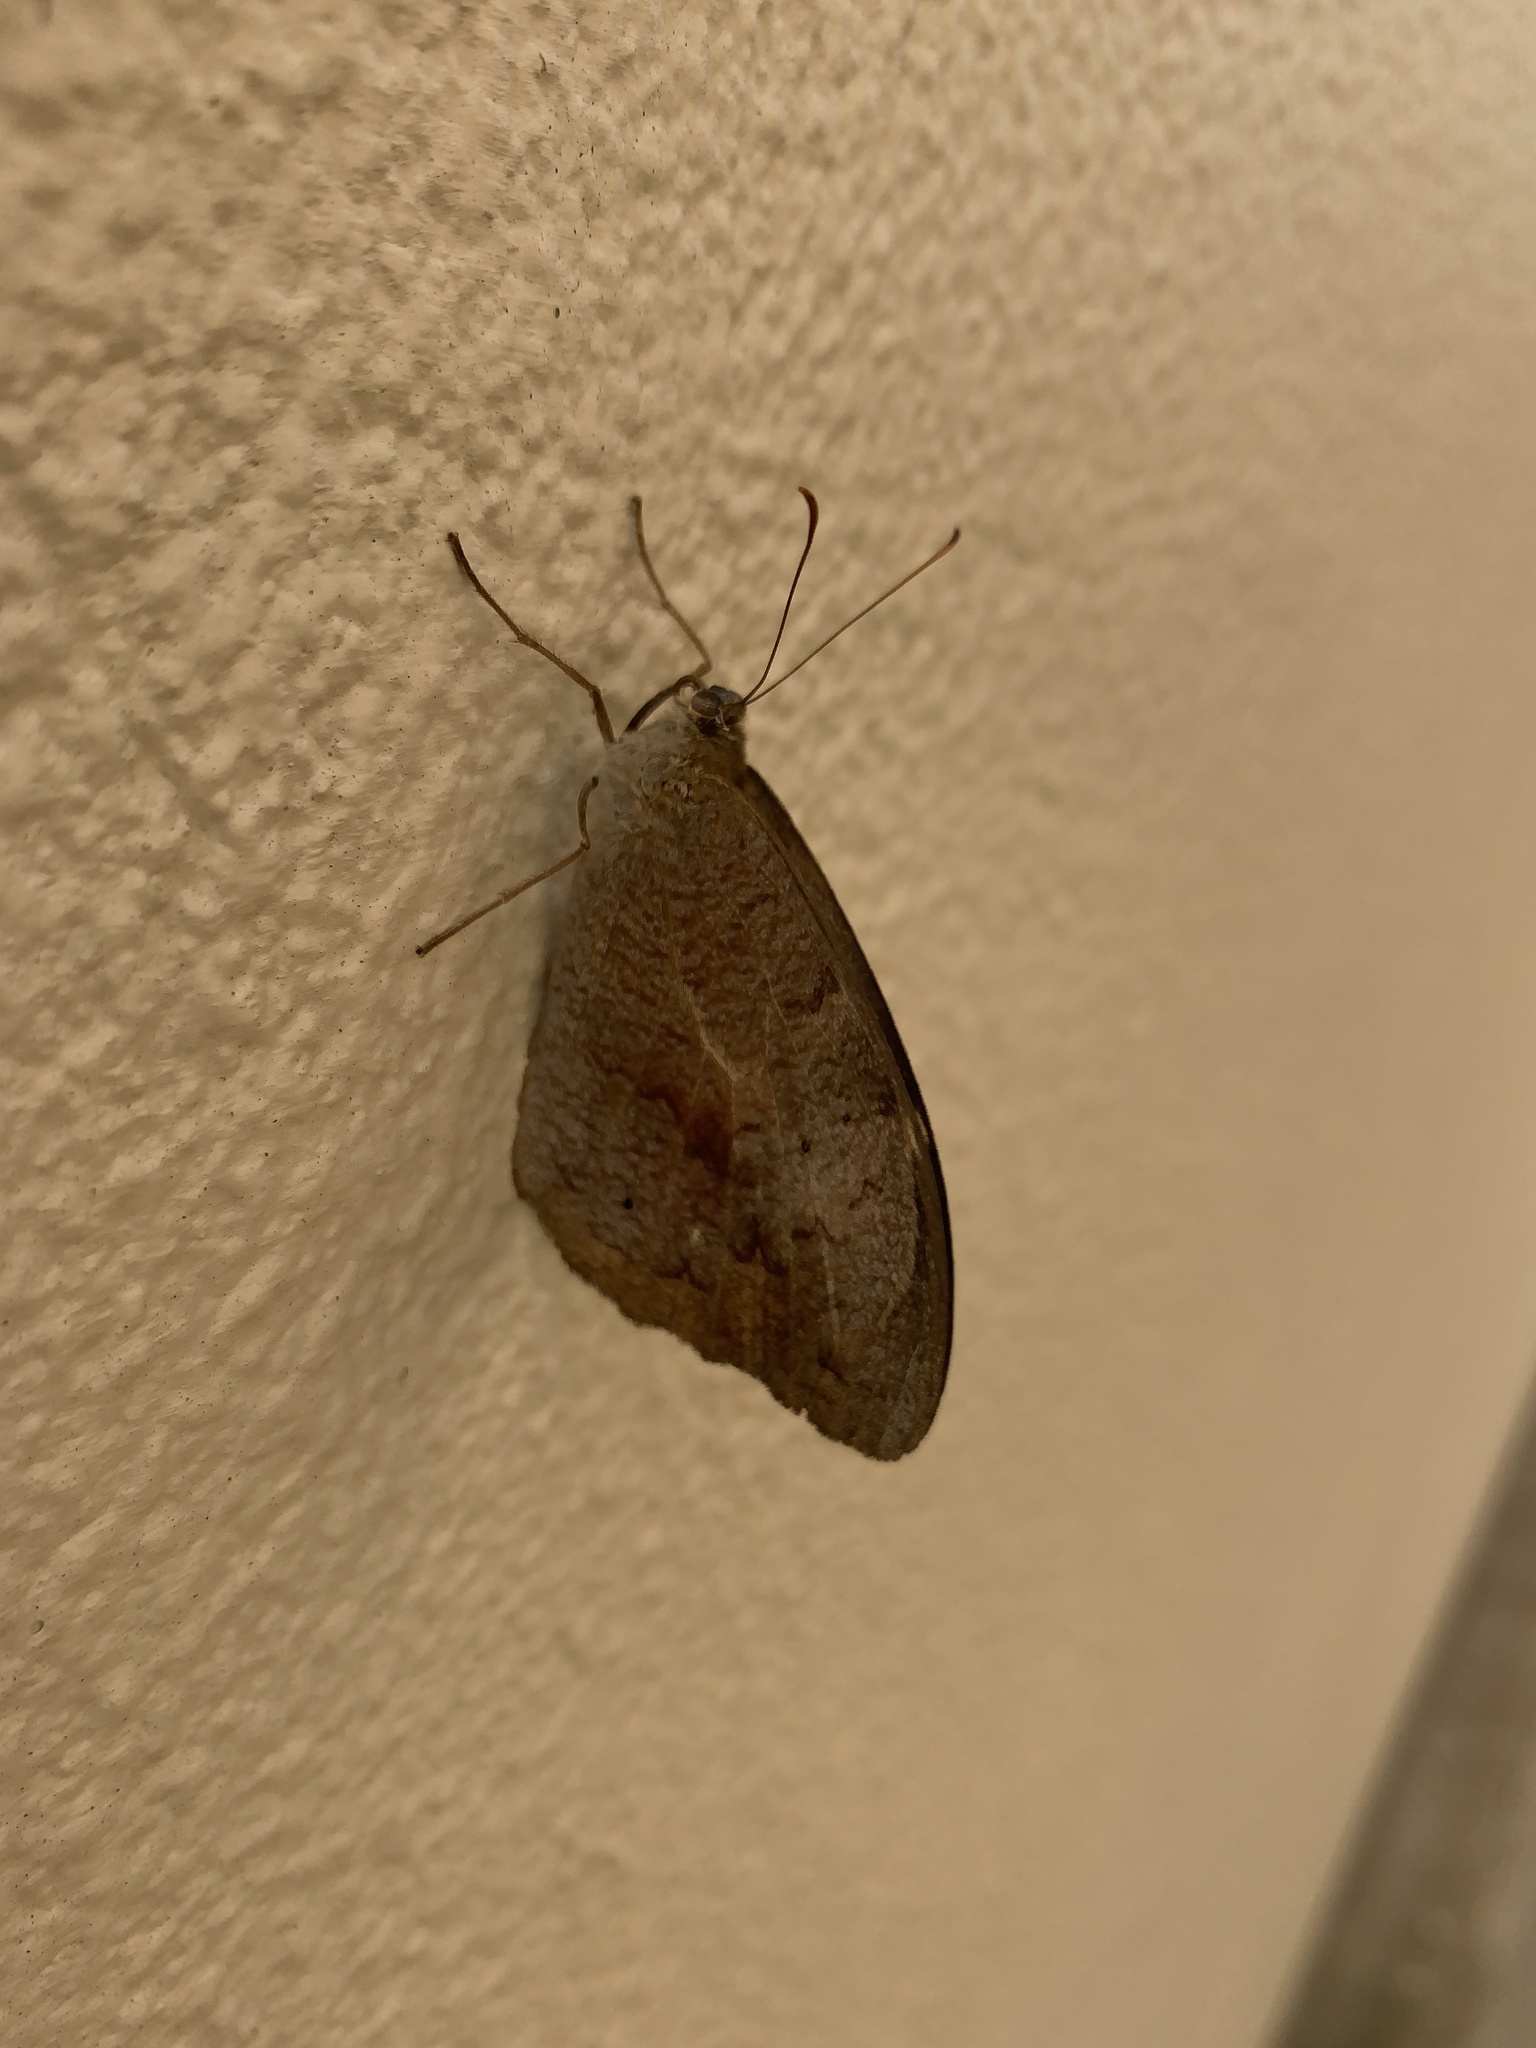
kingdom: Animalia
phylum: Arthropoda
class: Insecta
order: Lepidoptera
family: Nymphalidae
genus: Heteronympha
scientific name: Heteronympha merope
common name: Common brown
